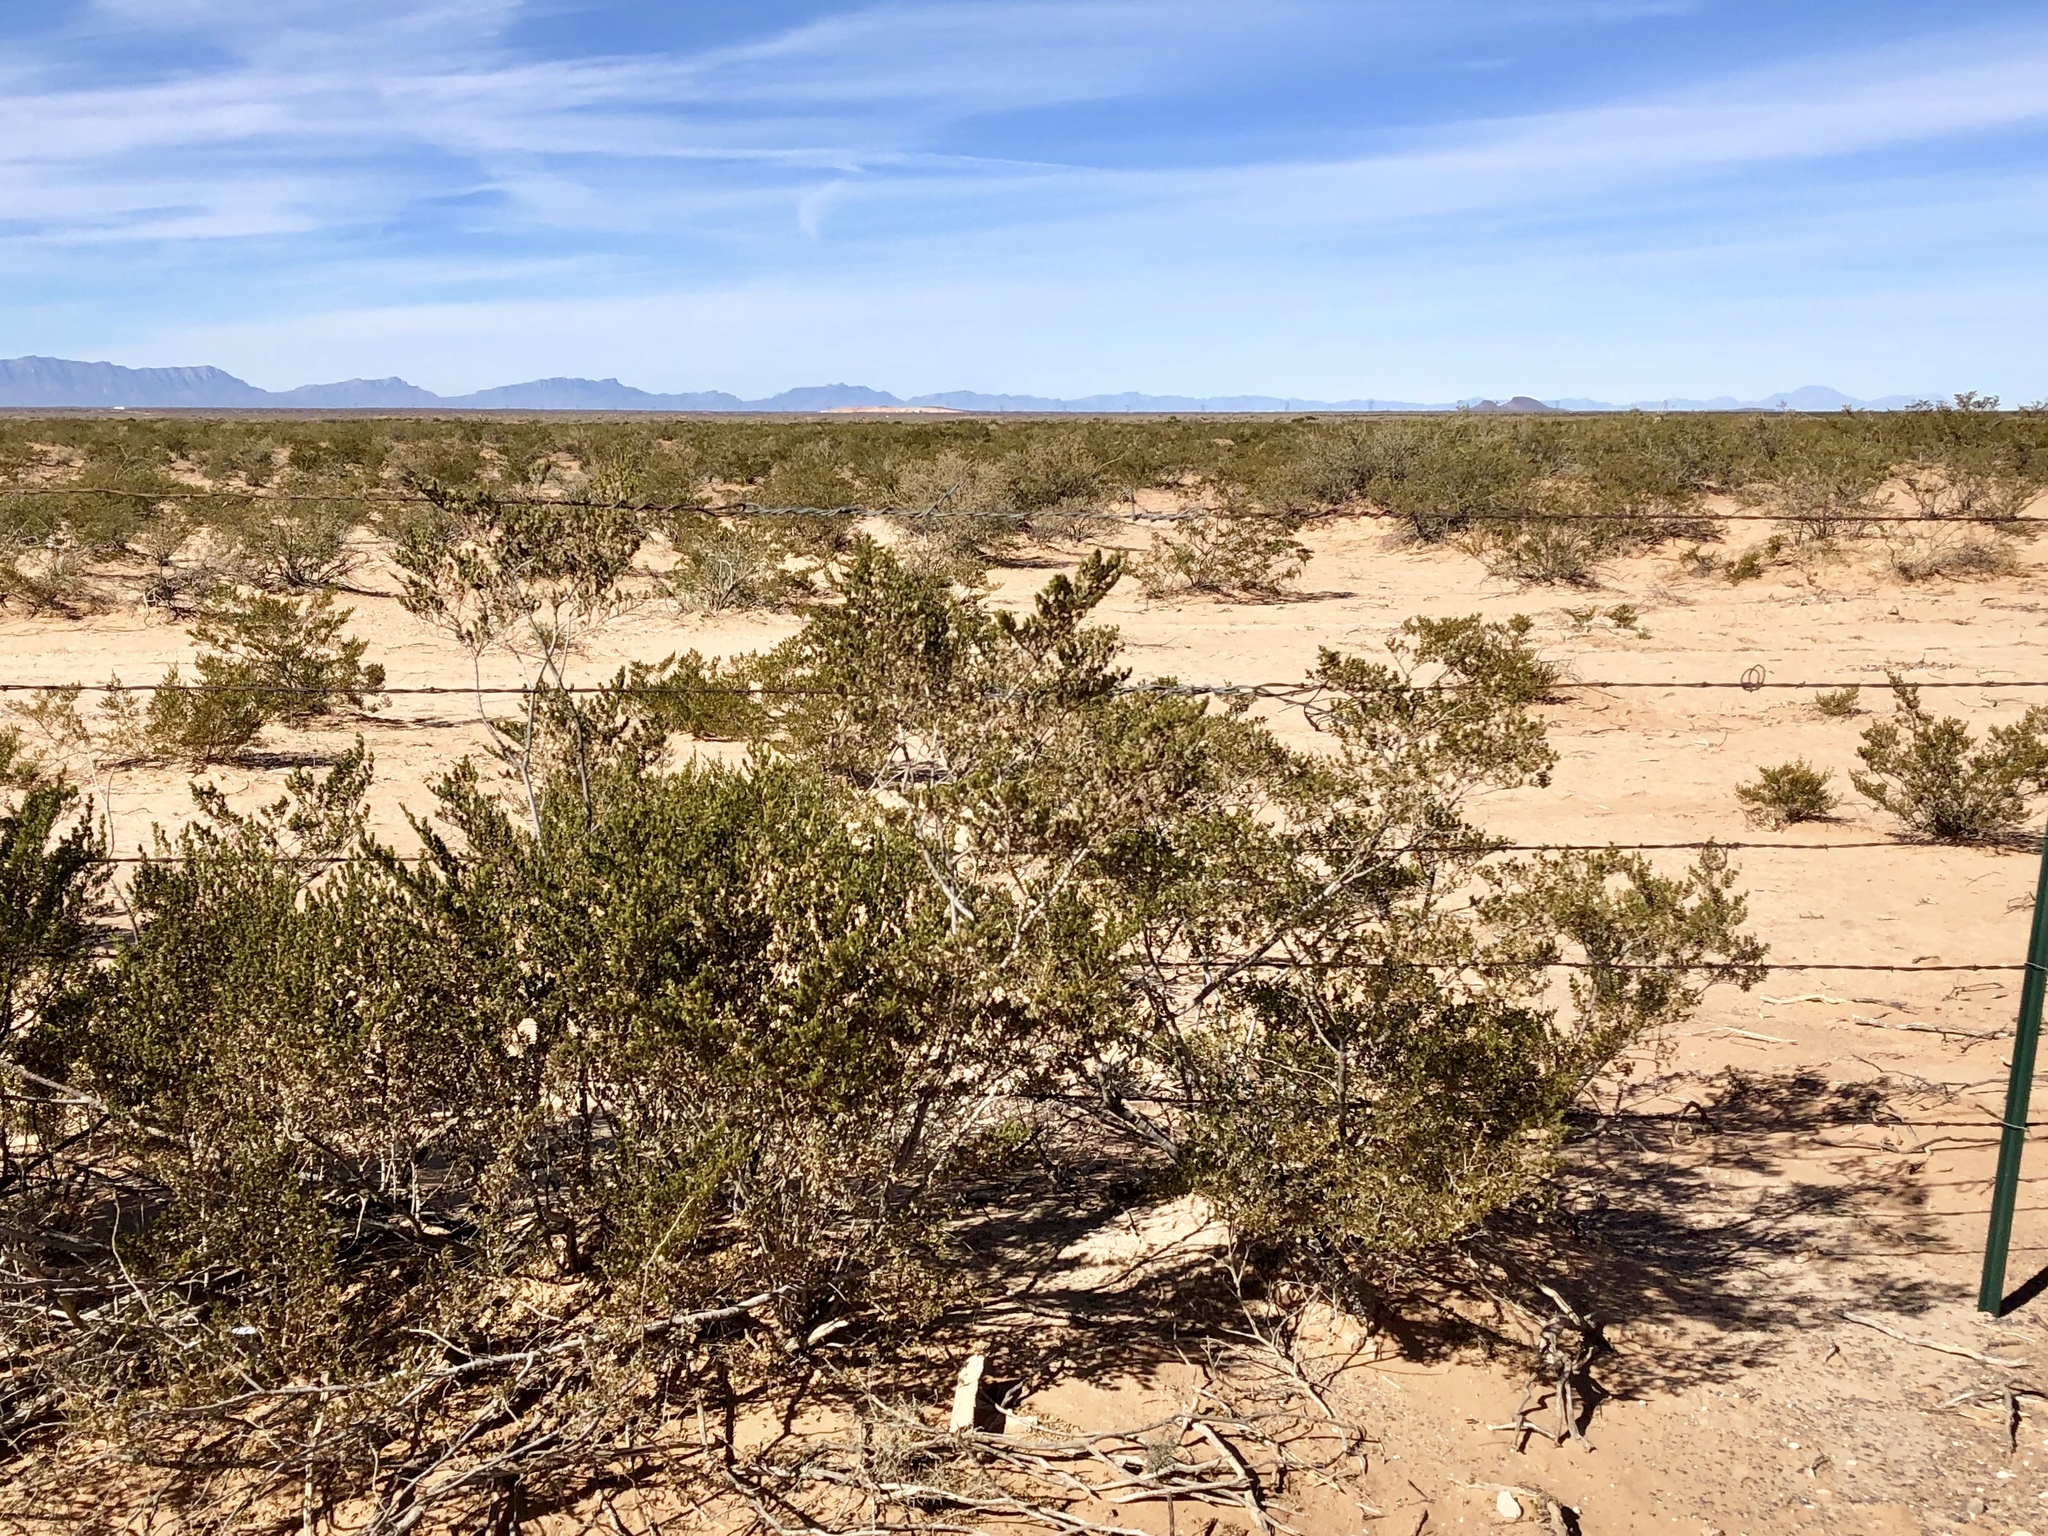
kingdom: Plantae
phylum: Tracheophyta
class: Magnoliopsida
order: Zygophyllales
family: Zygophyllaceae
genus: Larrea
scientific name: Larrea tridentata
